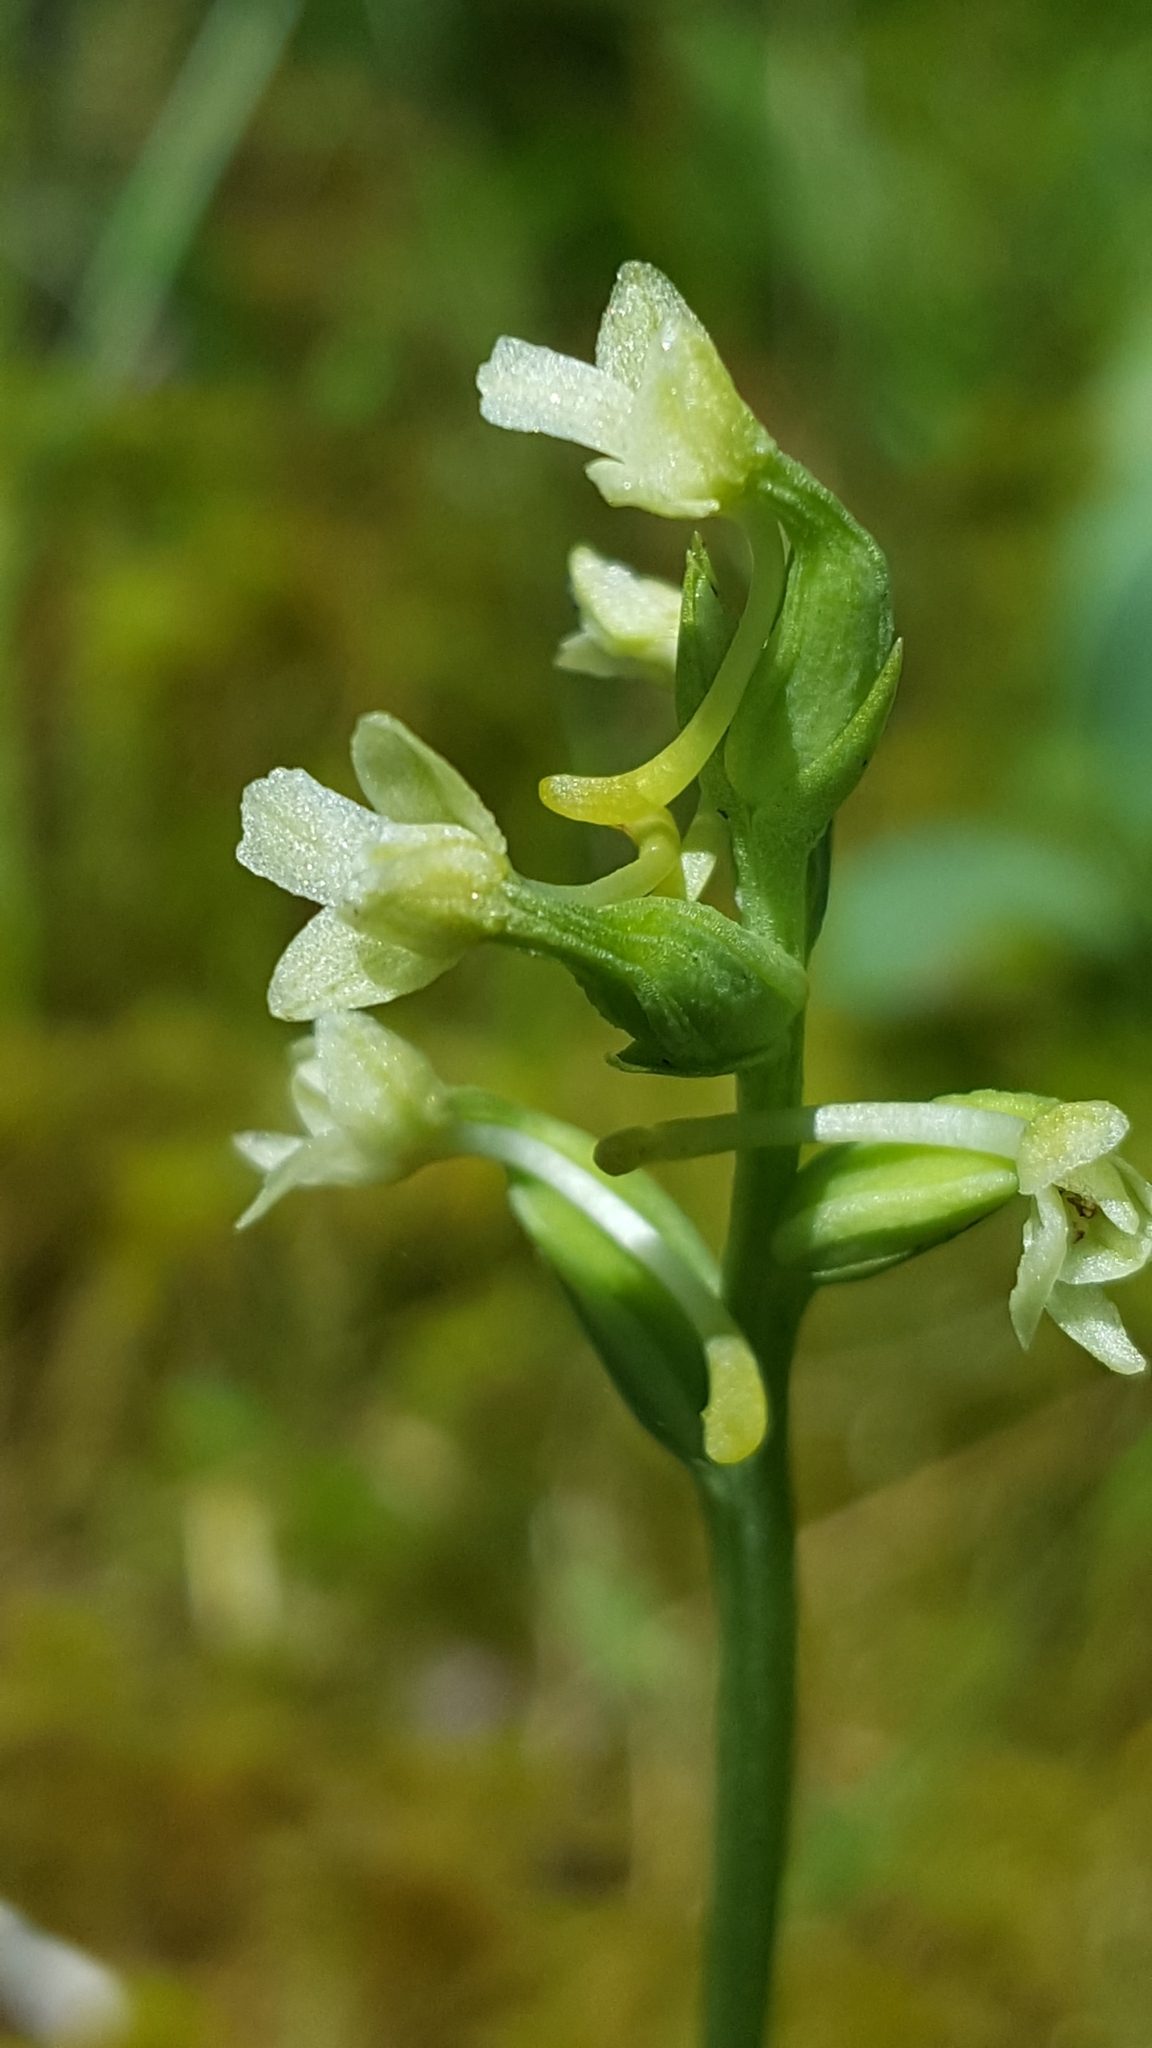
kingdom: Plantae
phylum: Tracheophyta
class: Liliopsida
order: Asparagales
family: Orchidaceae
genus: Platanthera
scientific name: Platanthera clavellata
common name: Club-spur orchid
